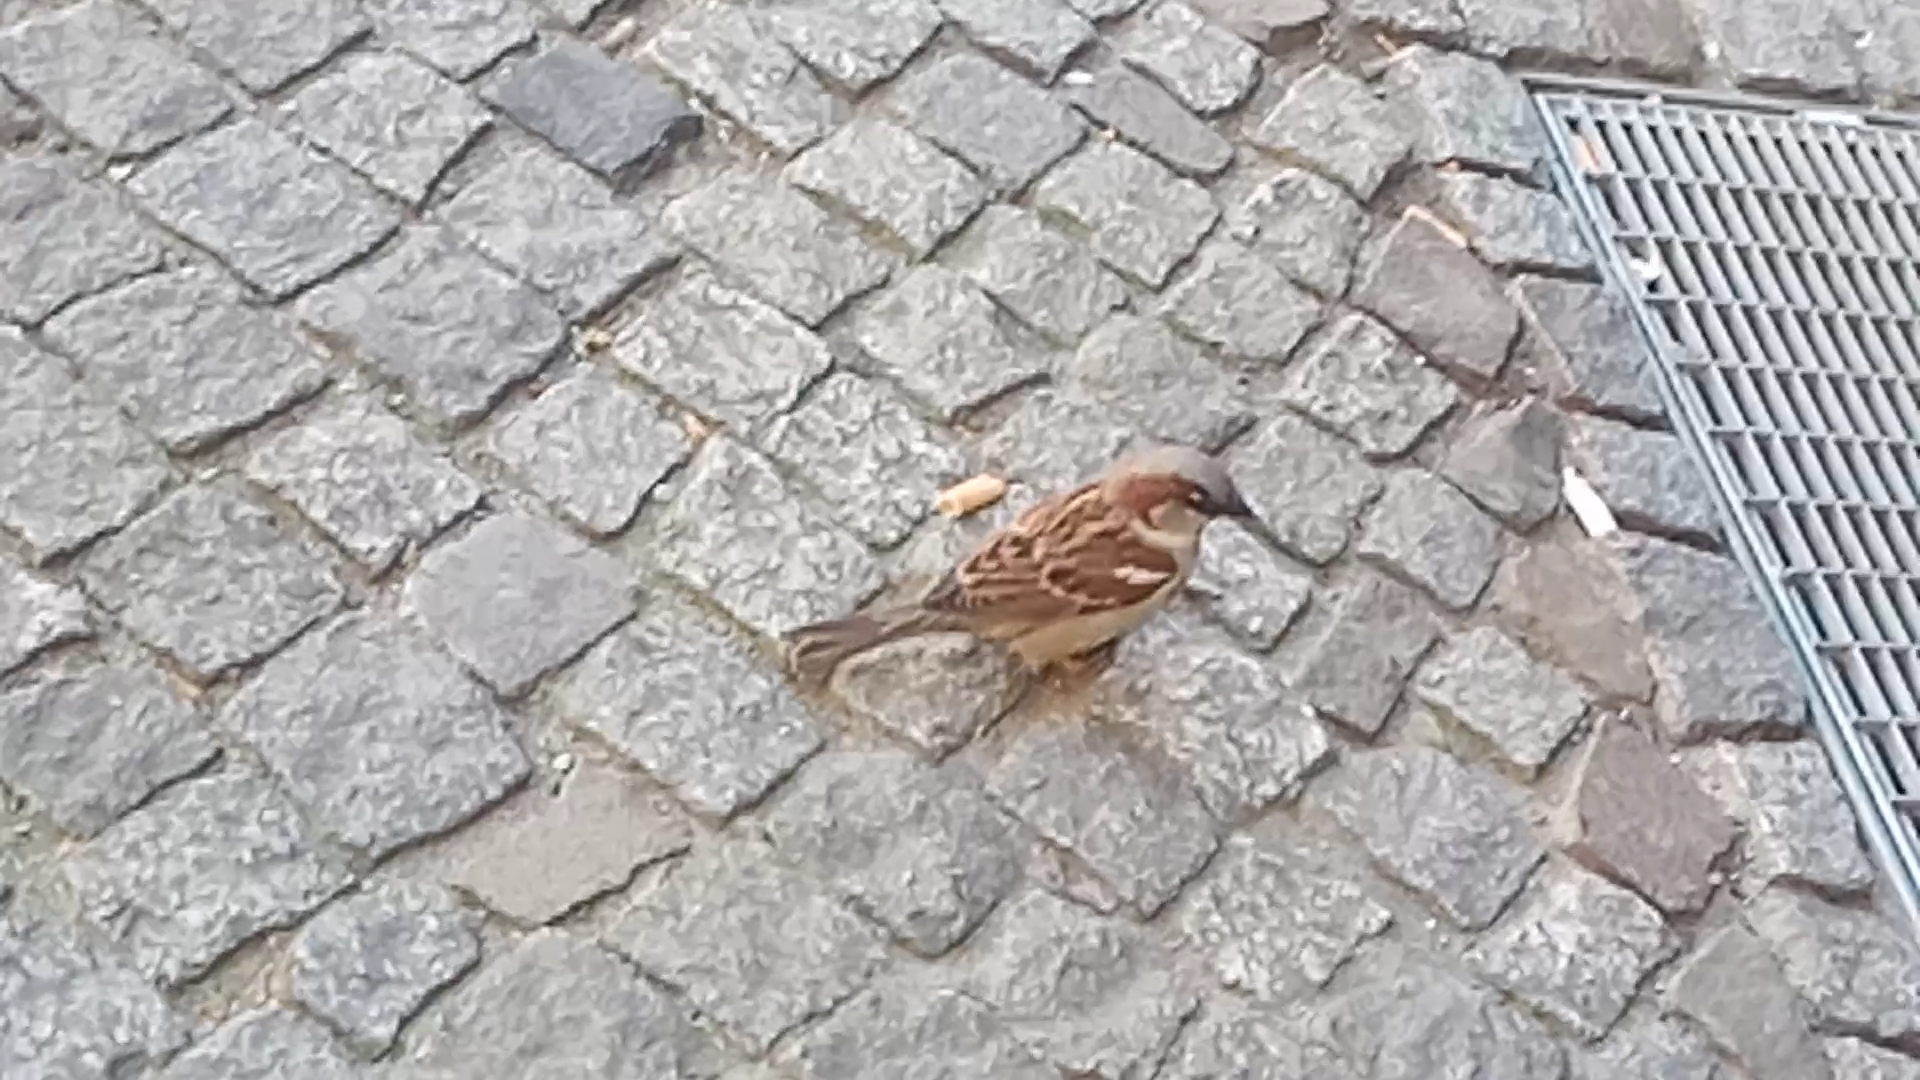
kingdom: Animalia
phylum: Chordata
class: Aves
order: Passeriformes
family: Passeridae
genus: Passer
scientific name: Passer domesticus
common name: House sparrow
